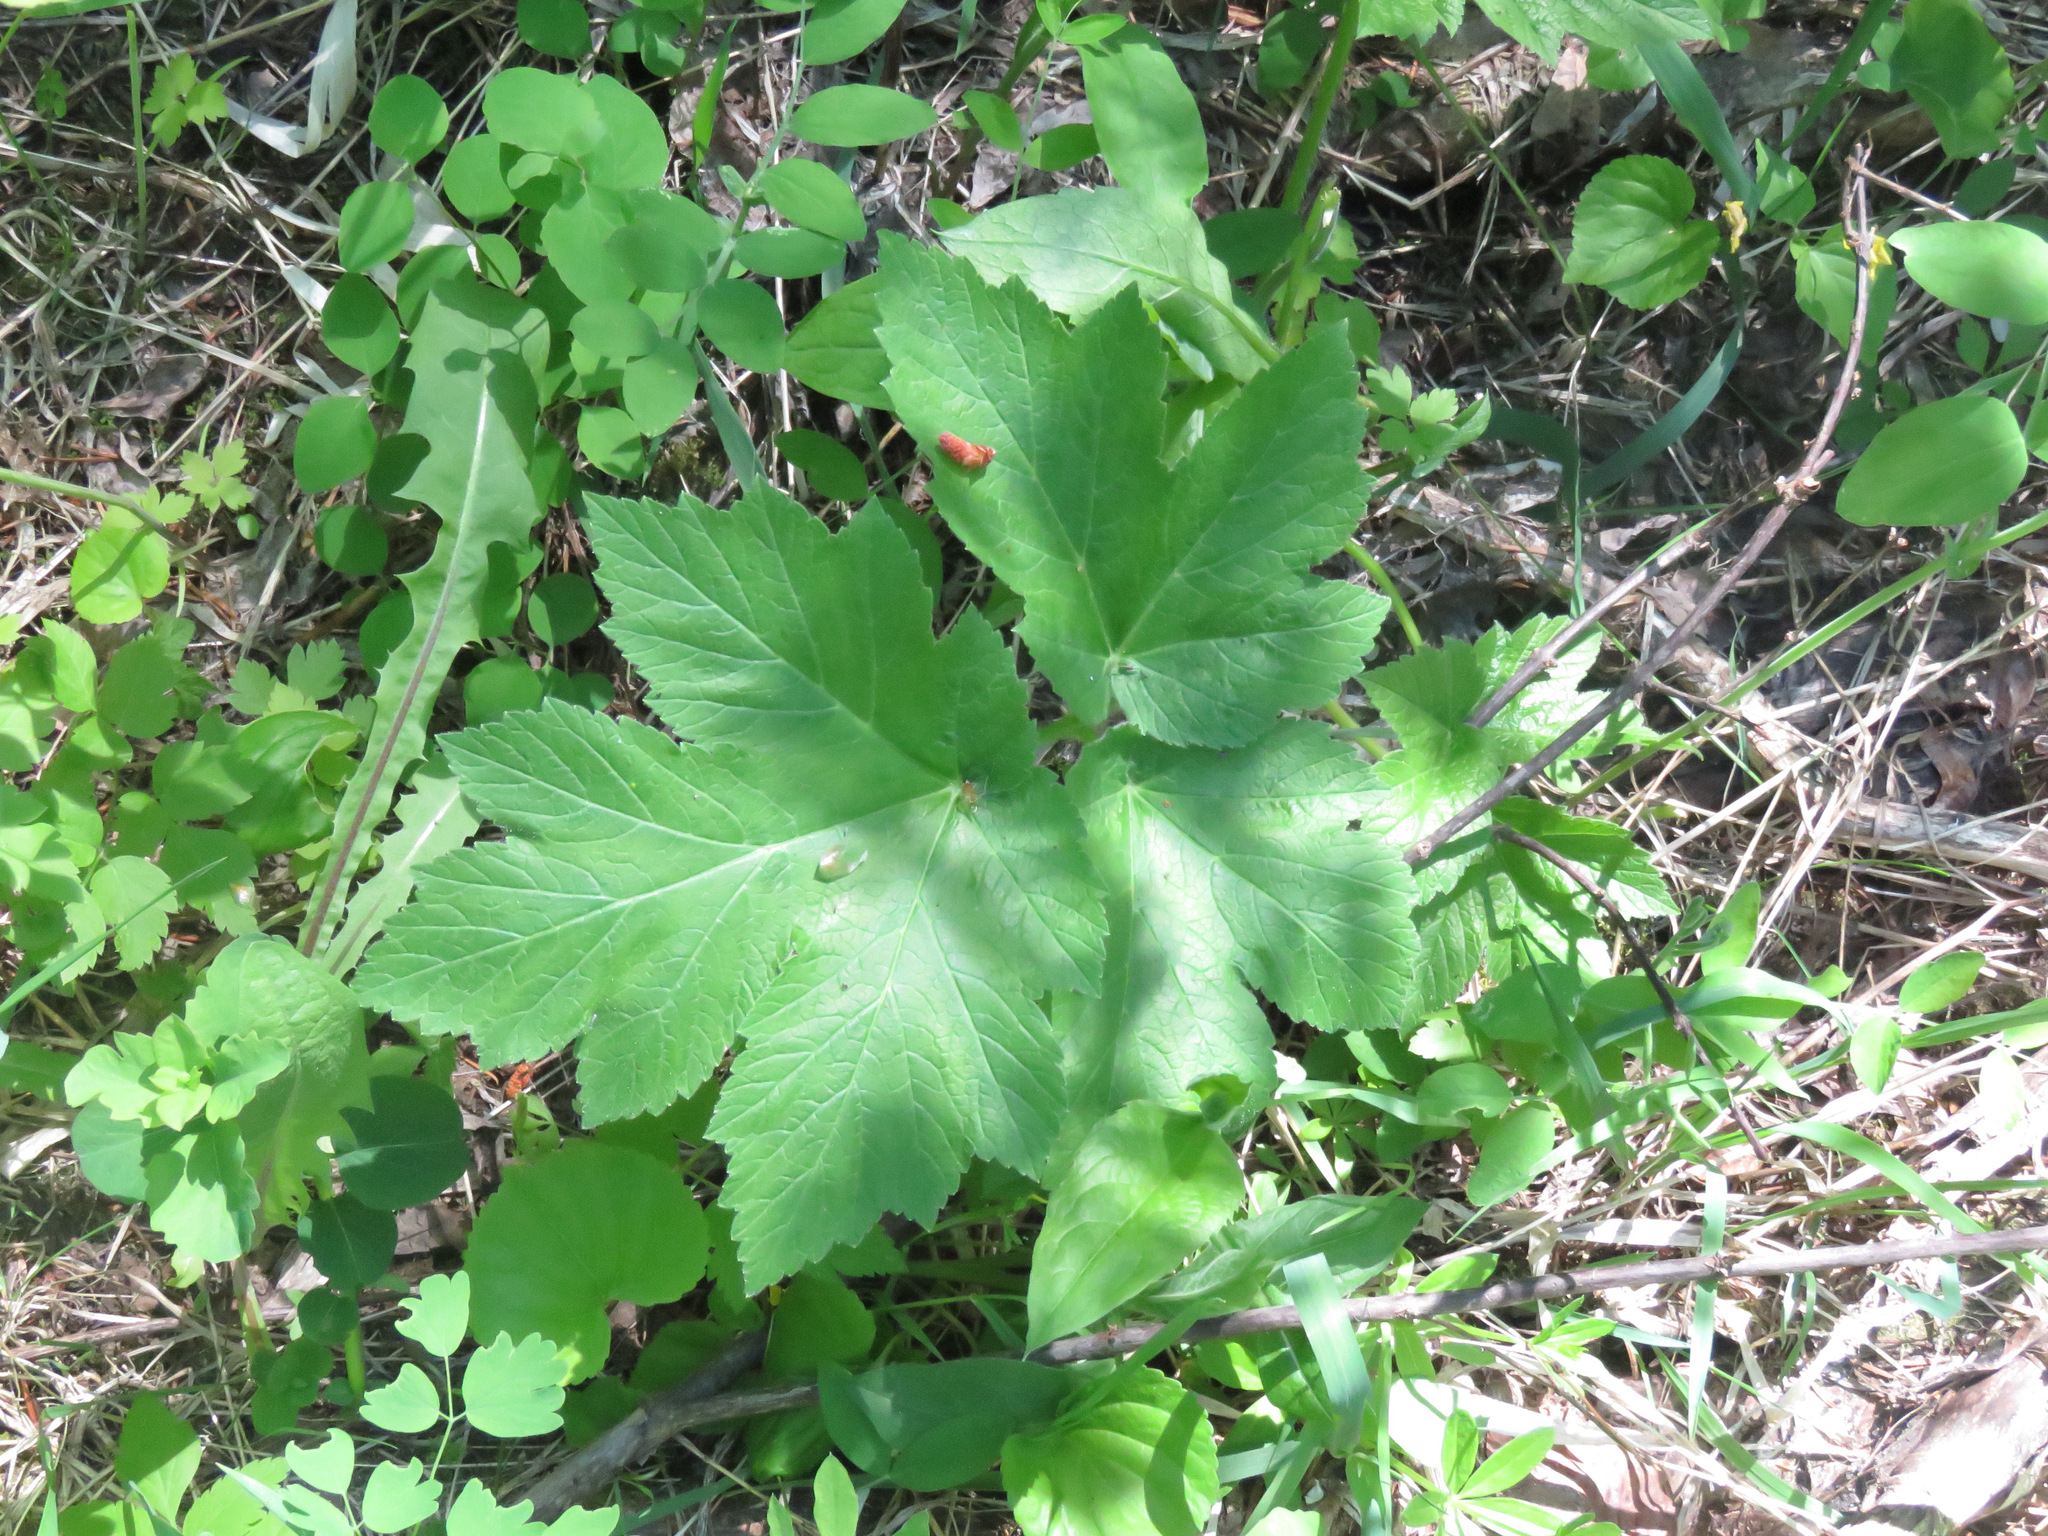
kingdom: Plantae
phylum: Tracheophyta
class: Magnoliopsida
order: Apiales
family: Apiaceae
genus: Heracleum
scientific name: Heracleum maximum
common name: American cow parsnip
